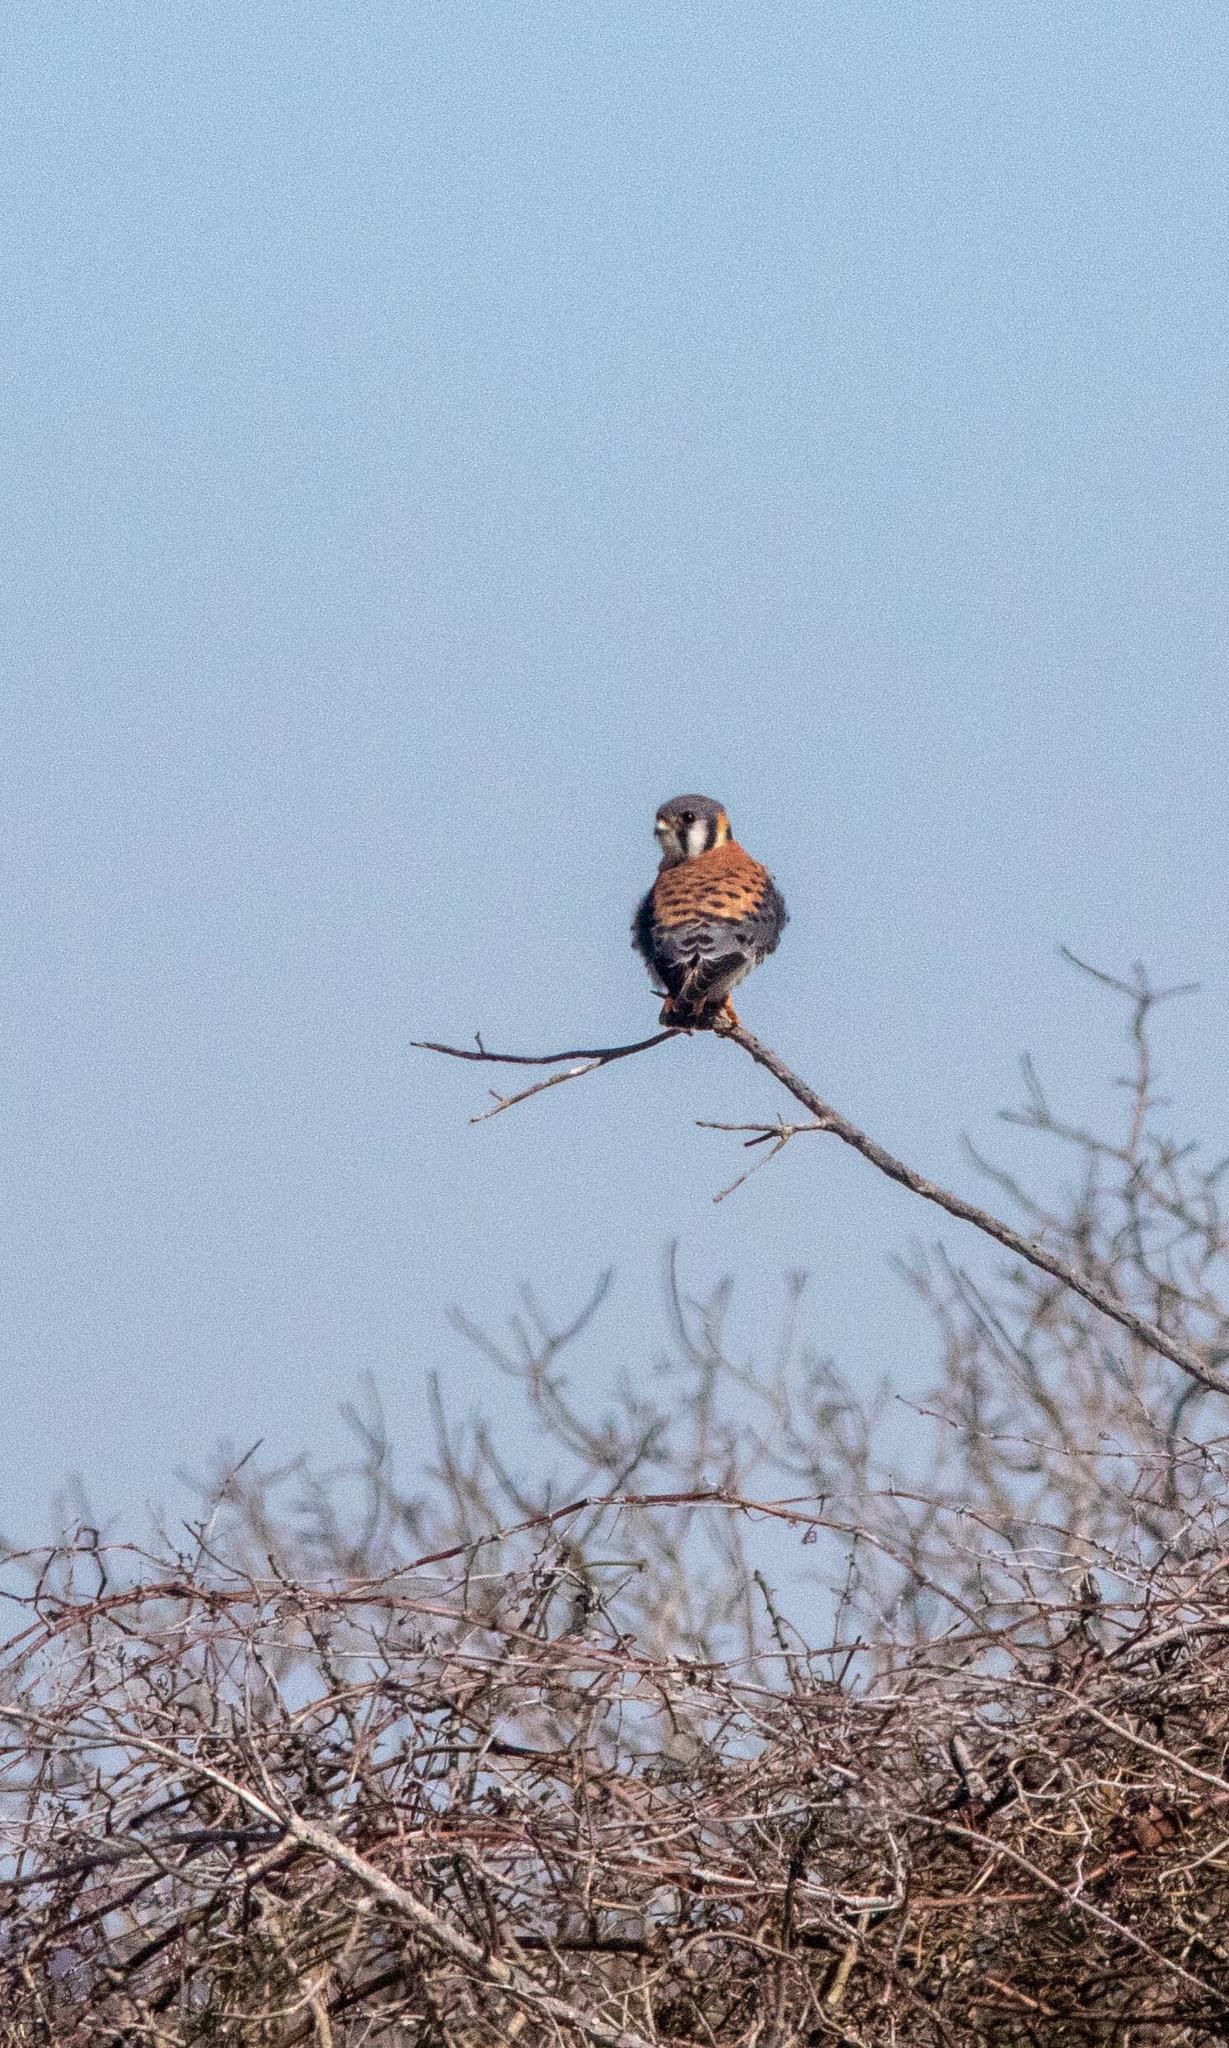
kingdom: Animalia
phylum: Chordata
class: Aves
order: Falconiformes
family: Falconidae
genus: Falco
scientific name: Falco sparverius
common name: American kestrel
